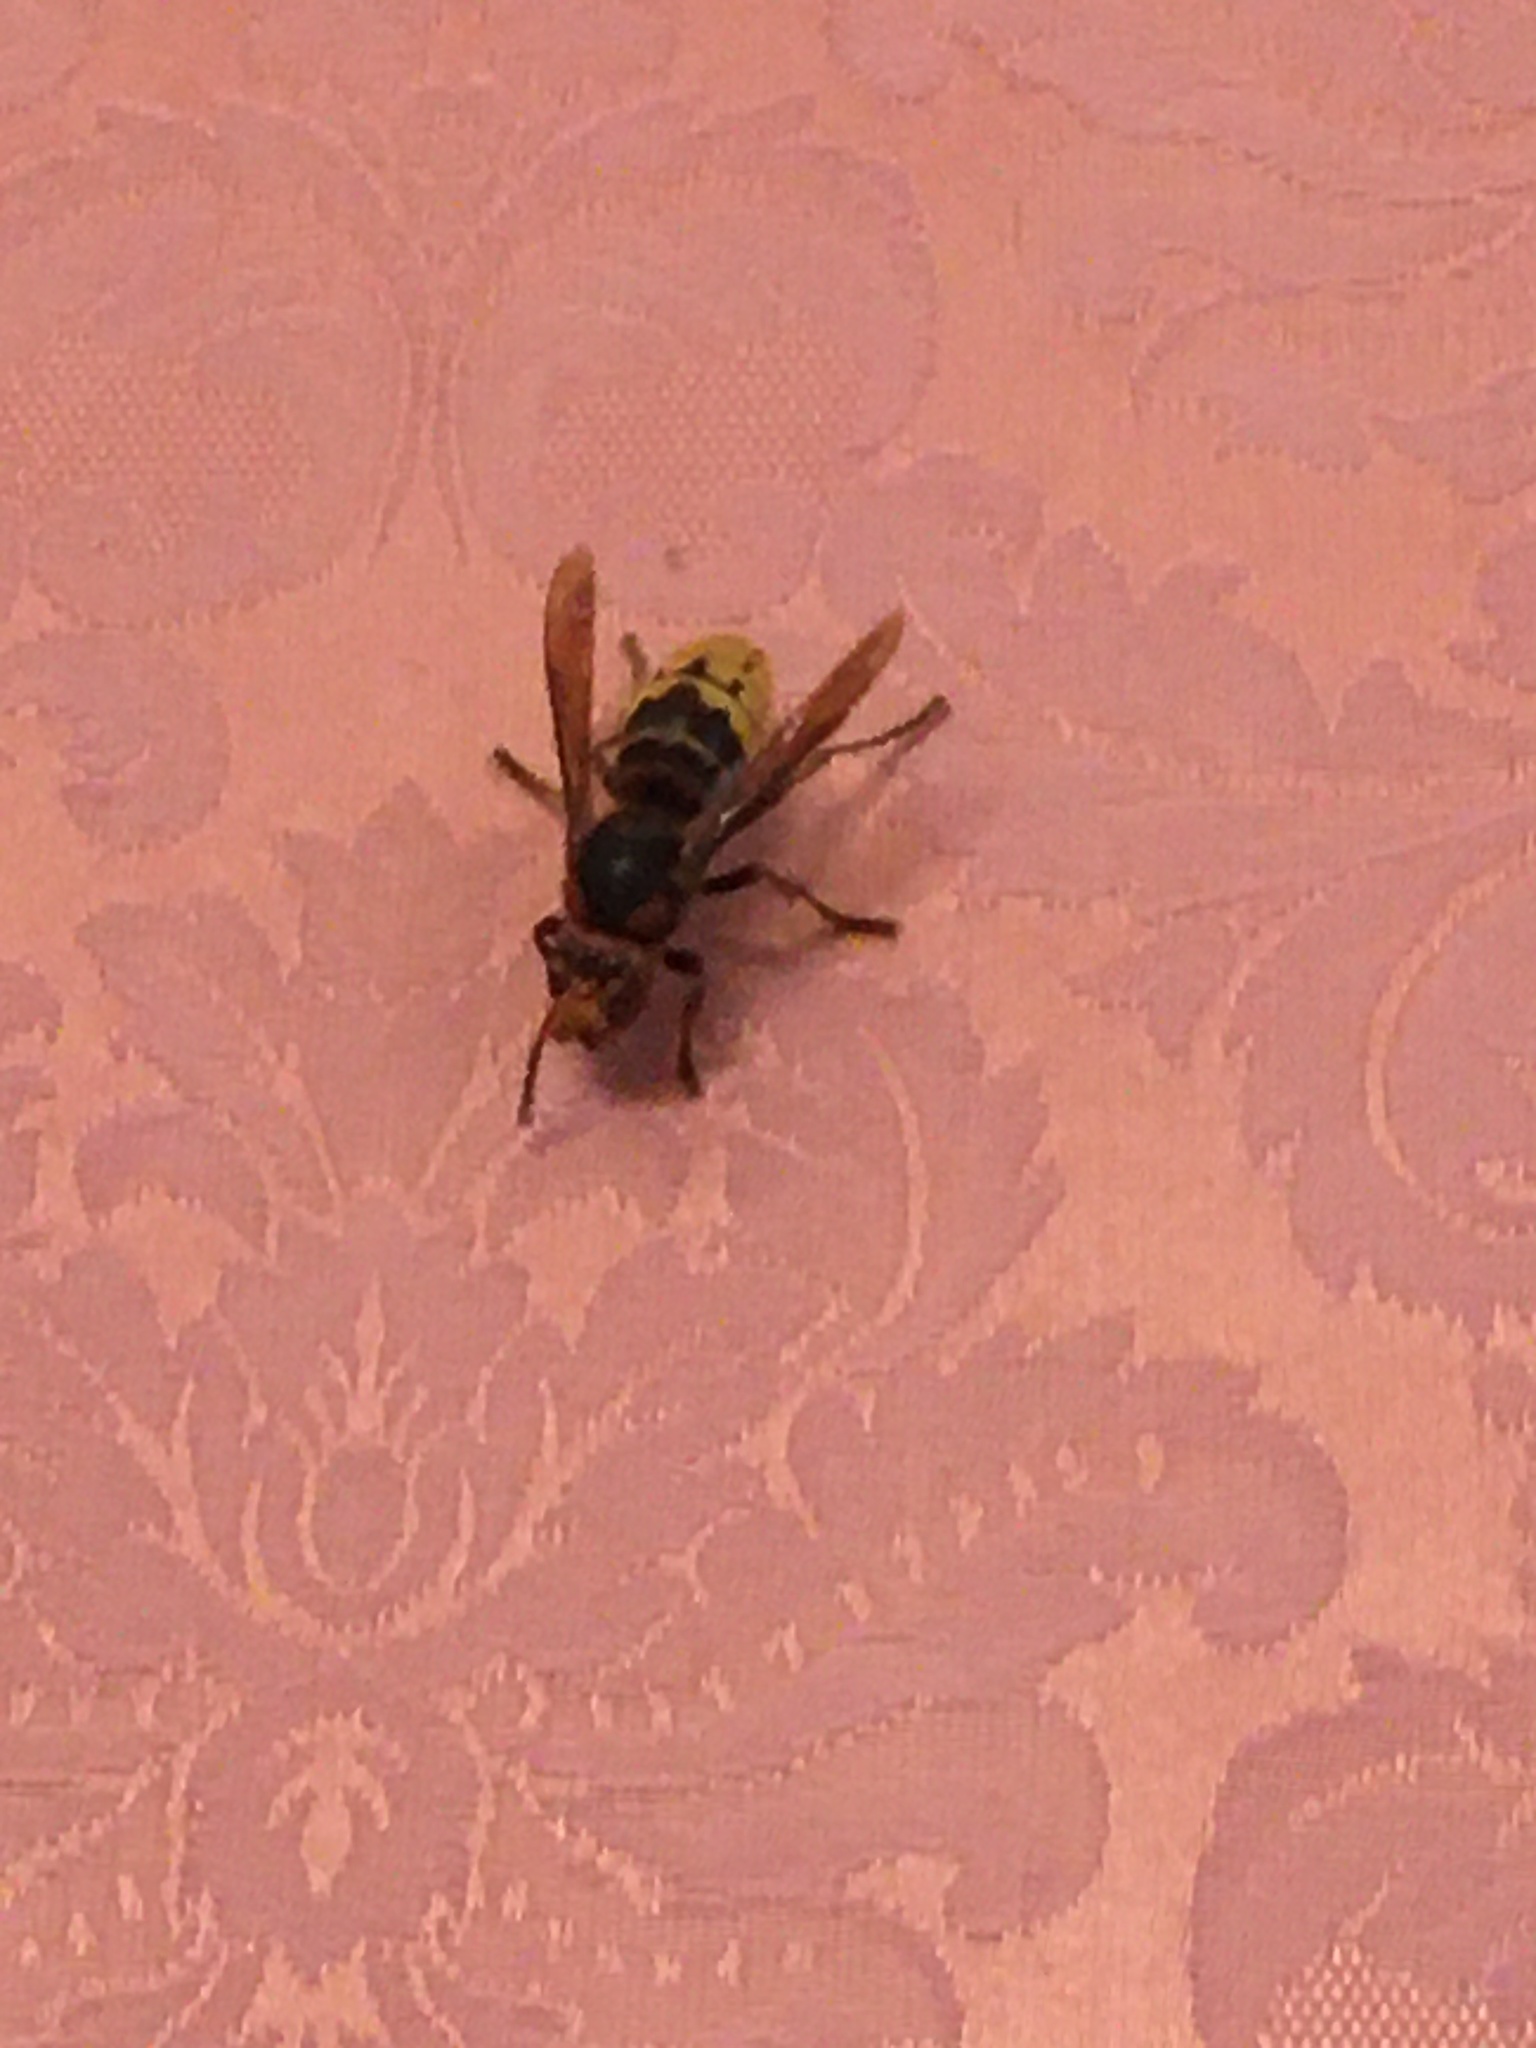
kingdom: Animalia
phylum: Arthropoda
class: Insecta
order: Hymenoptera
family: Vespidae
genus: Vespa
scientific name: Vespa crabro
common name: Hornet
